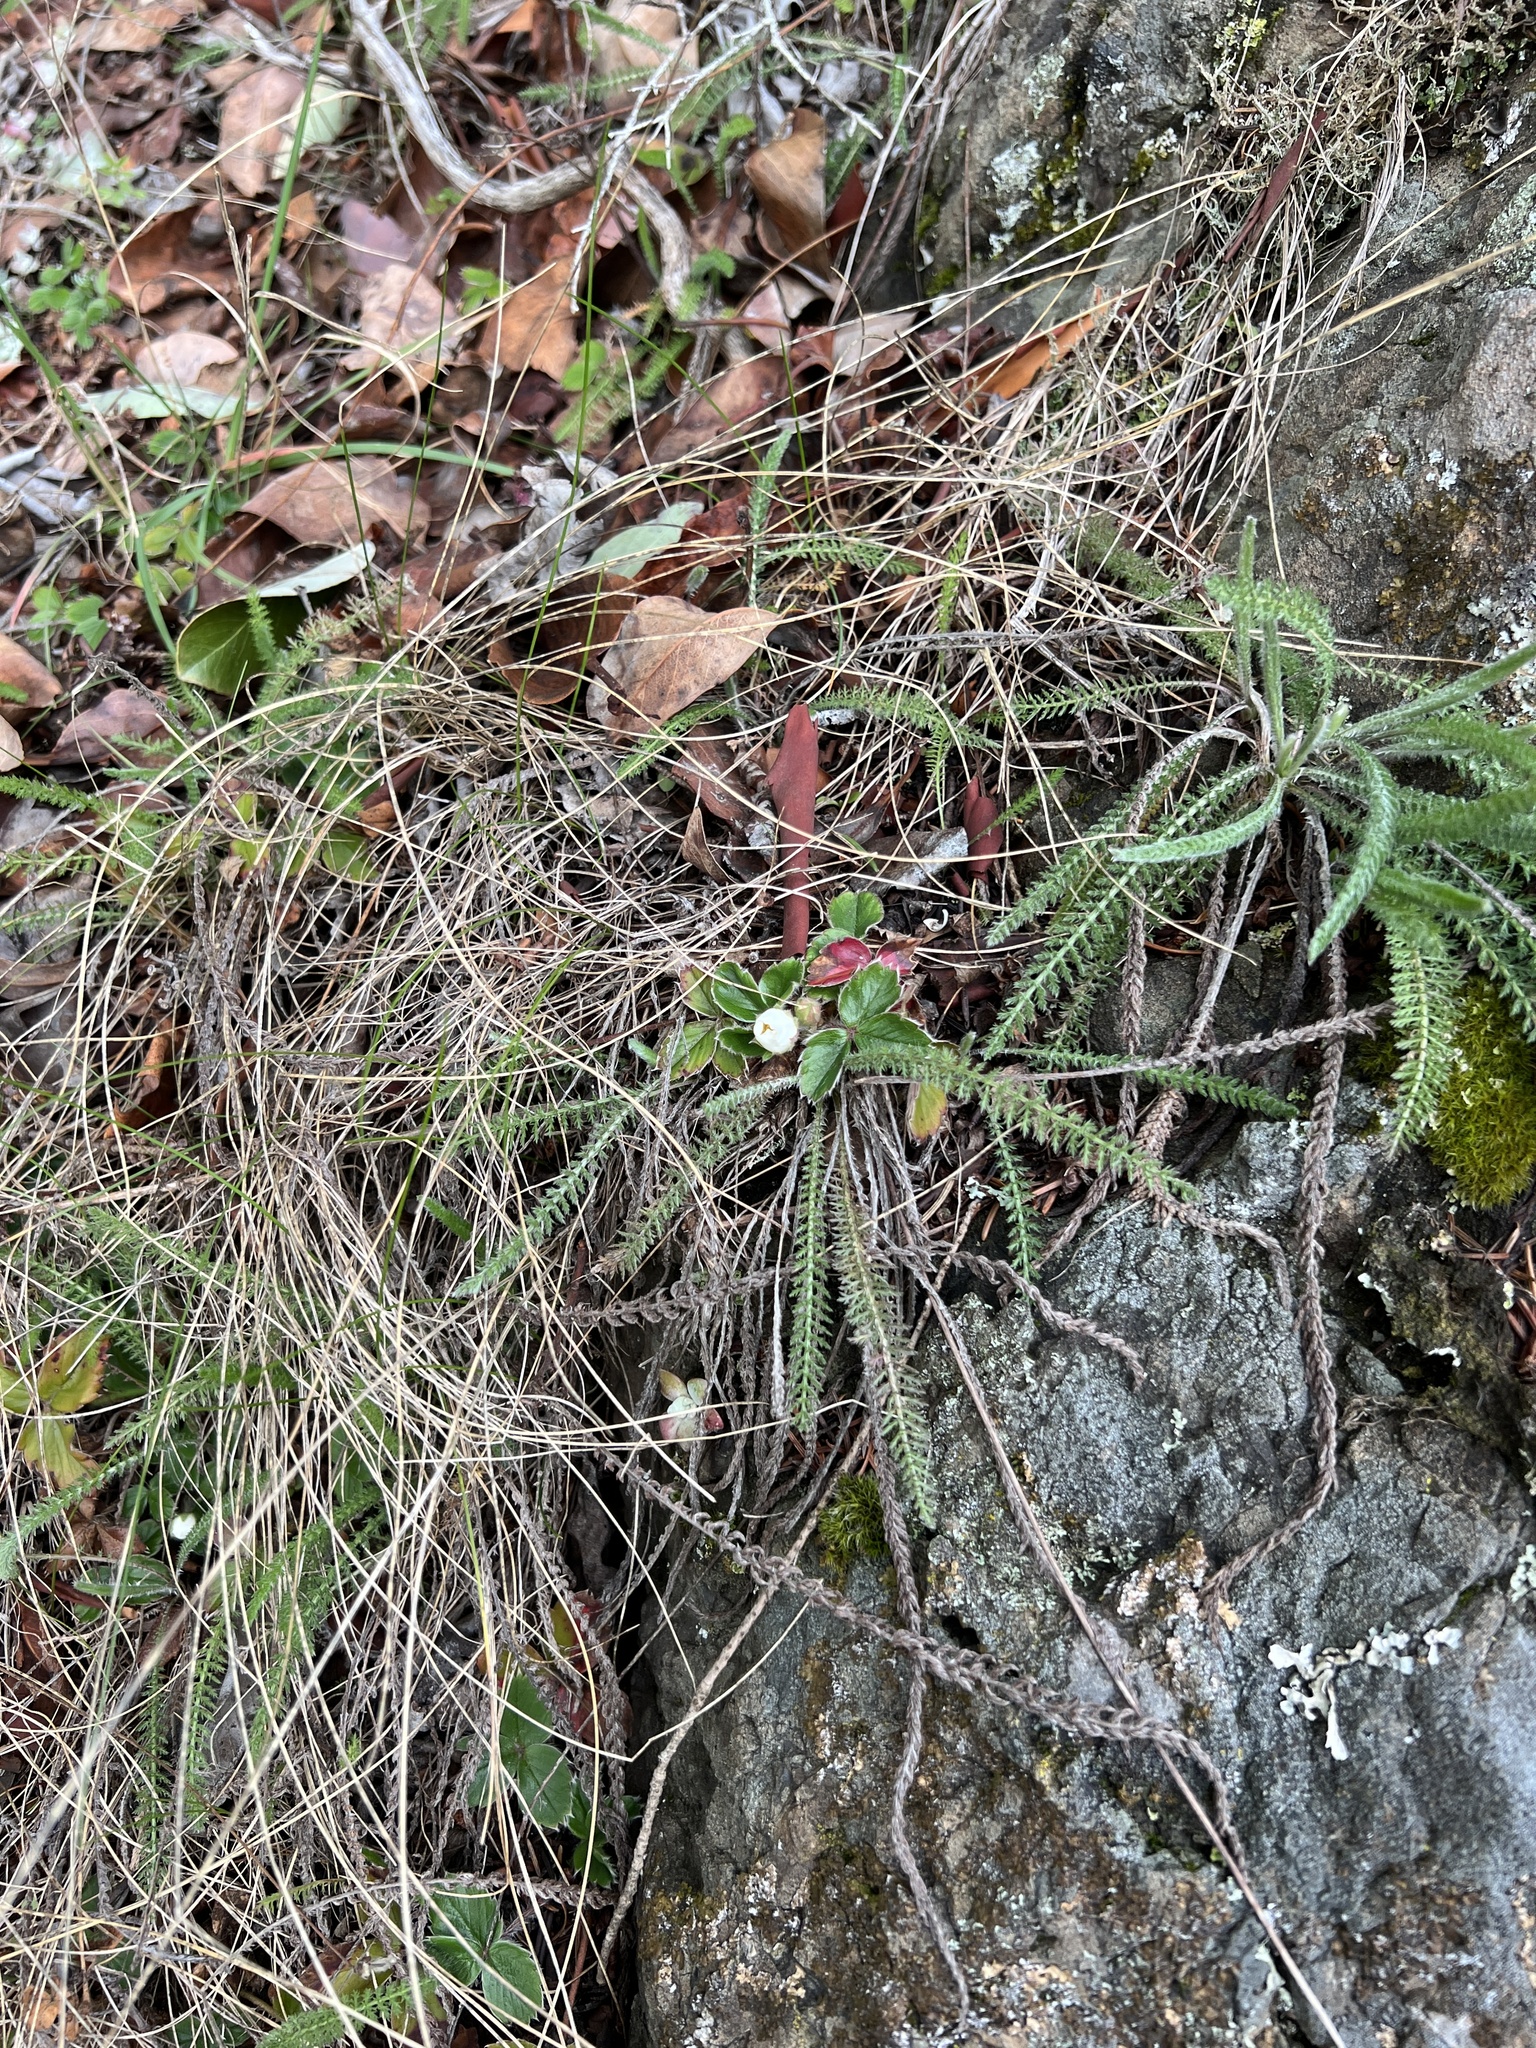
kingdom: Plantae
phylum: Tracheophyta
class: Magnoliopsida
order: Rosales
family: Rosaceae
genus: Fragaria
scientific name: Fragaria chiloensis
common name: Beach strawberry
